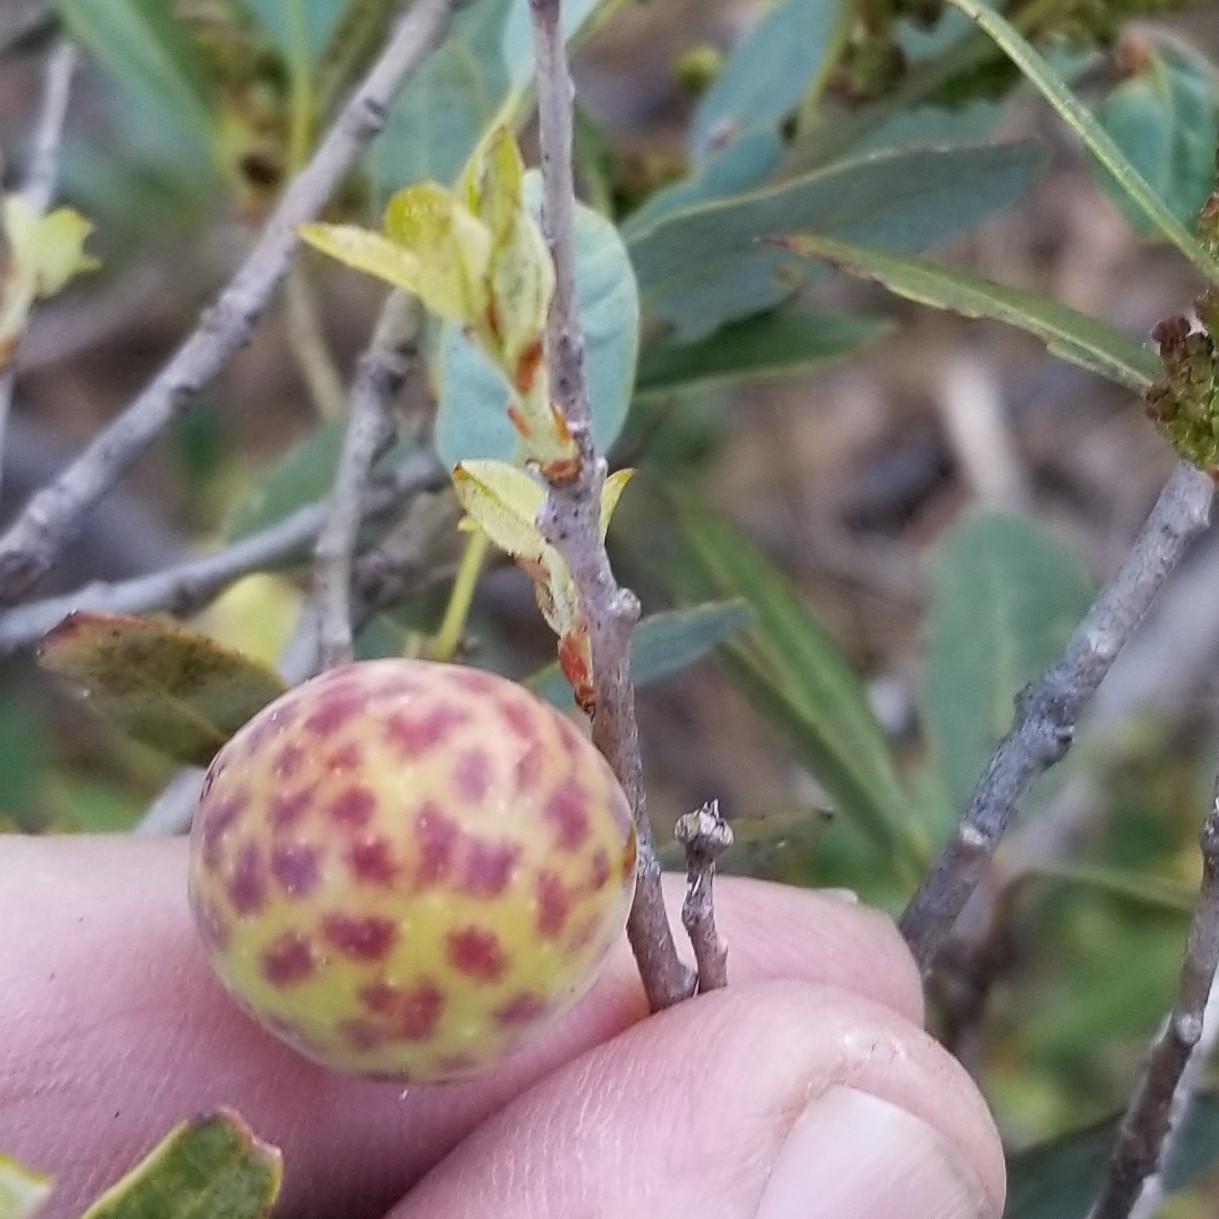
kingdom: Animalia
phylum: Arthropoda
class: Insecta
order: Hymenoptera
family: Cynipidae
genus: Andricus
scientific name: Andricus
